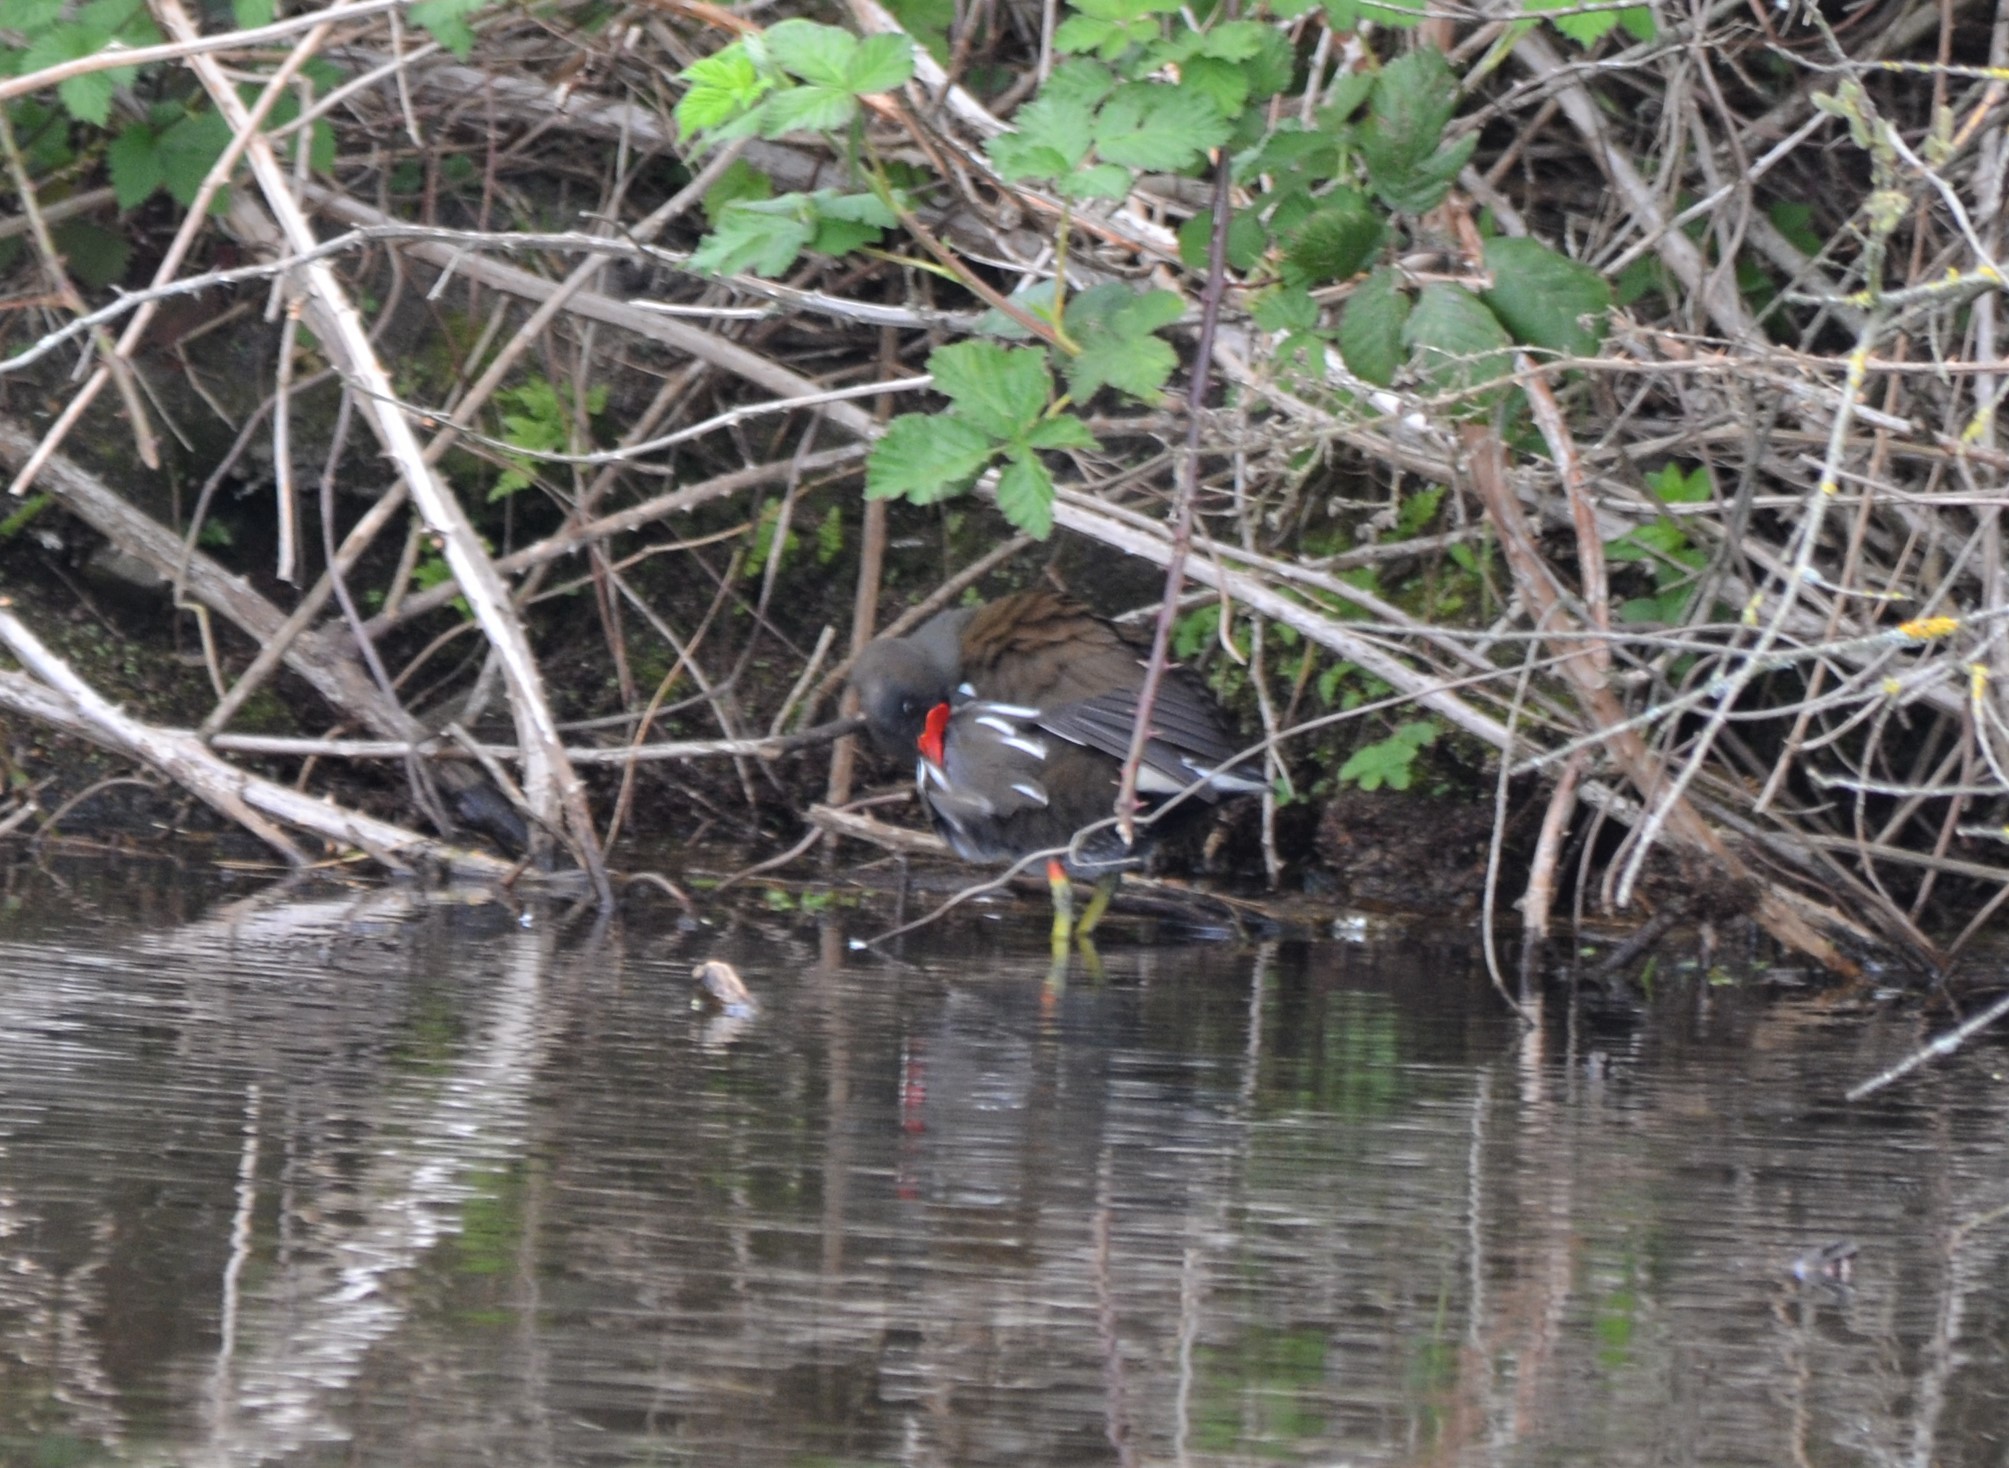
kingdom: Animalia
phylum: Chordata
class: Aves
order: Gruiformes
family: Rallidae
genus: Gallinula
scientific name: Gallinula chloropus
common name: Common moorhen
